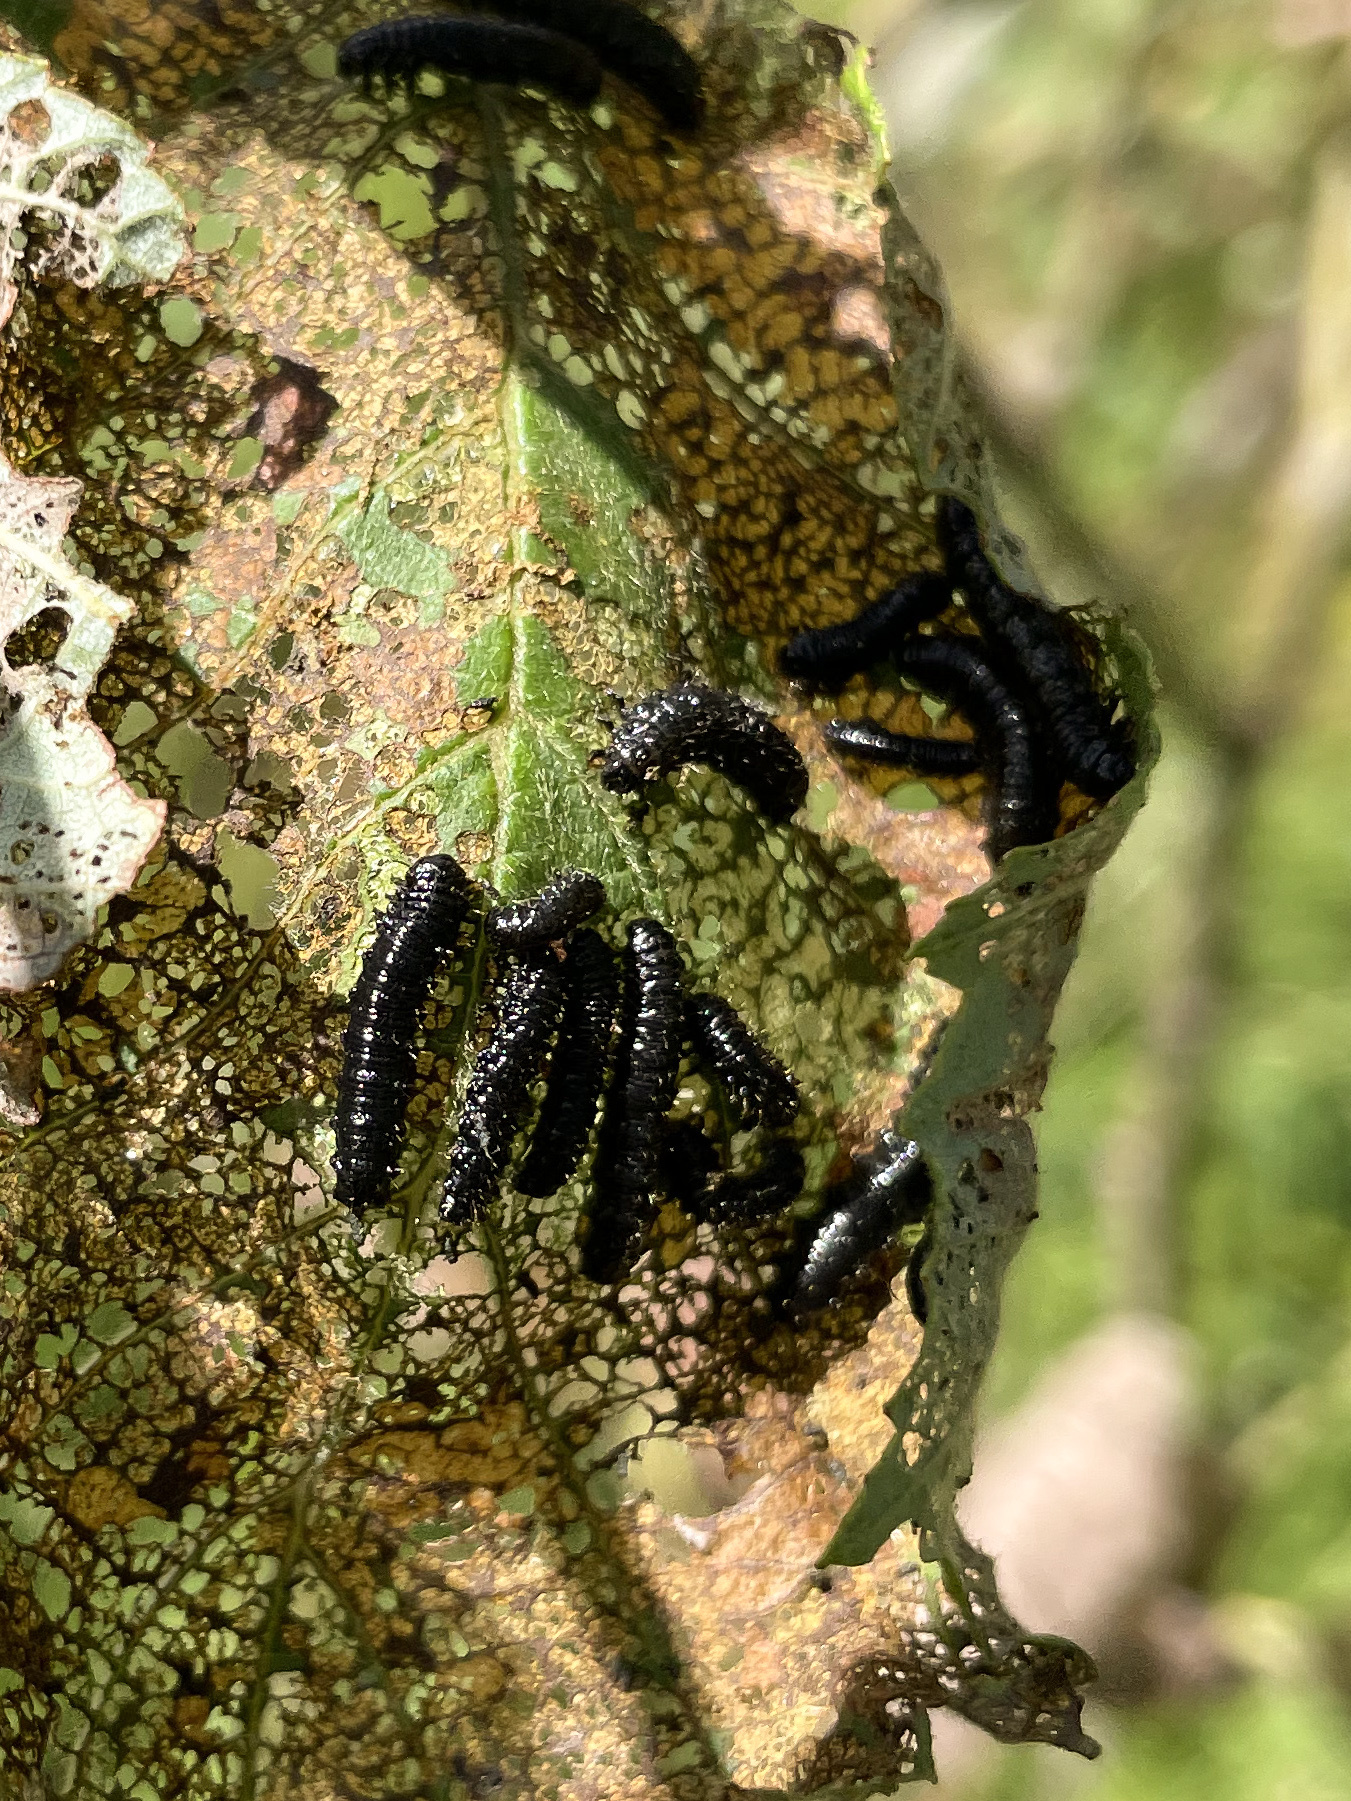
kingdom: Animalia
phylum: Arthropoda
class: Insecta
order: Coleoptera
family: Chrysomelidae
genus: Agelastica
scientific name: Agelastica alni
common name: Alder leaf beetle
